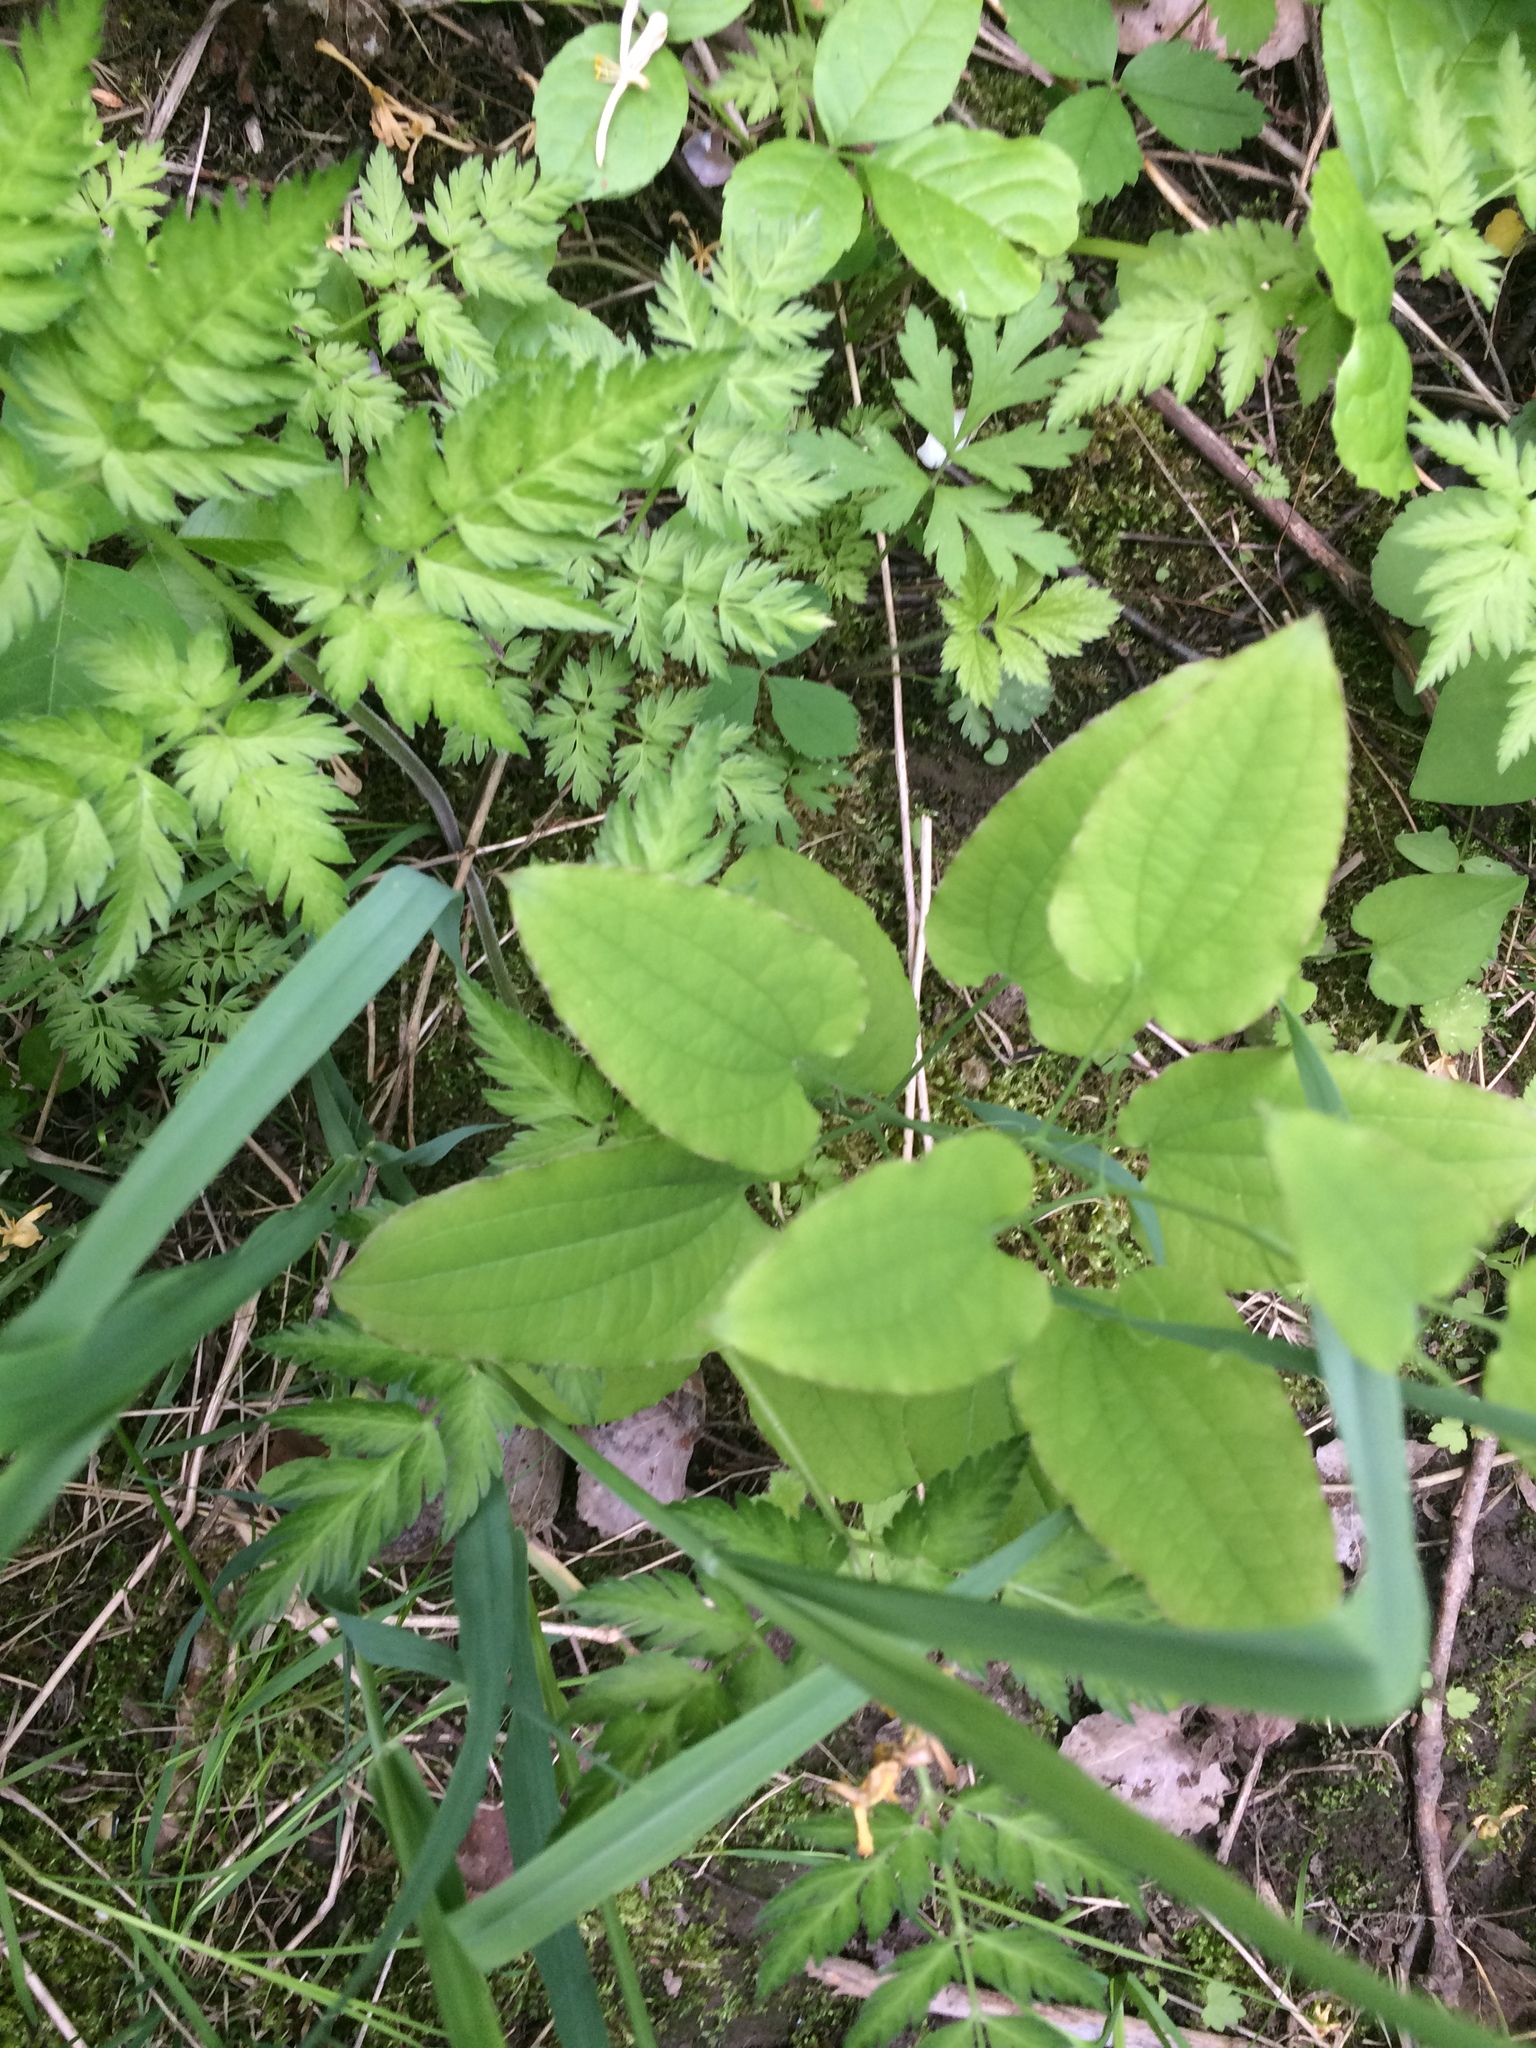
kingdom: Plantae
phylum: Tracheophyta
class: Liliopsida
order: Liliales
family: Smilacaceae
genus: Smilax
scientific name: Smilax herbacea
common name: Jacob's-ladder
